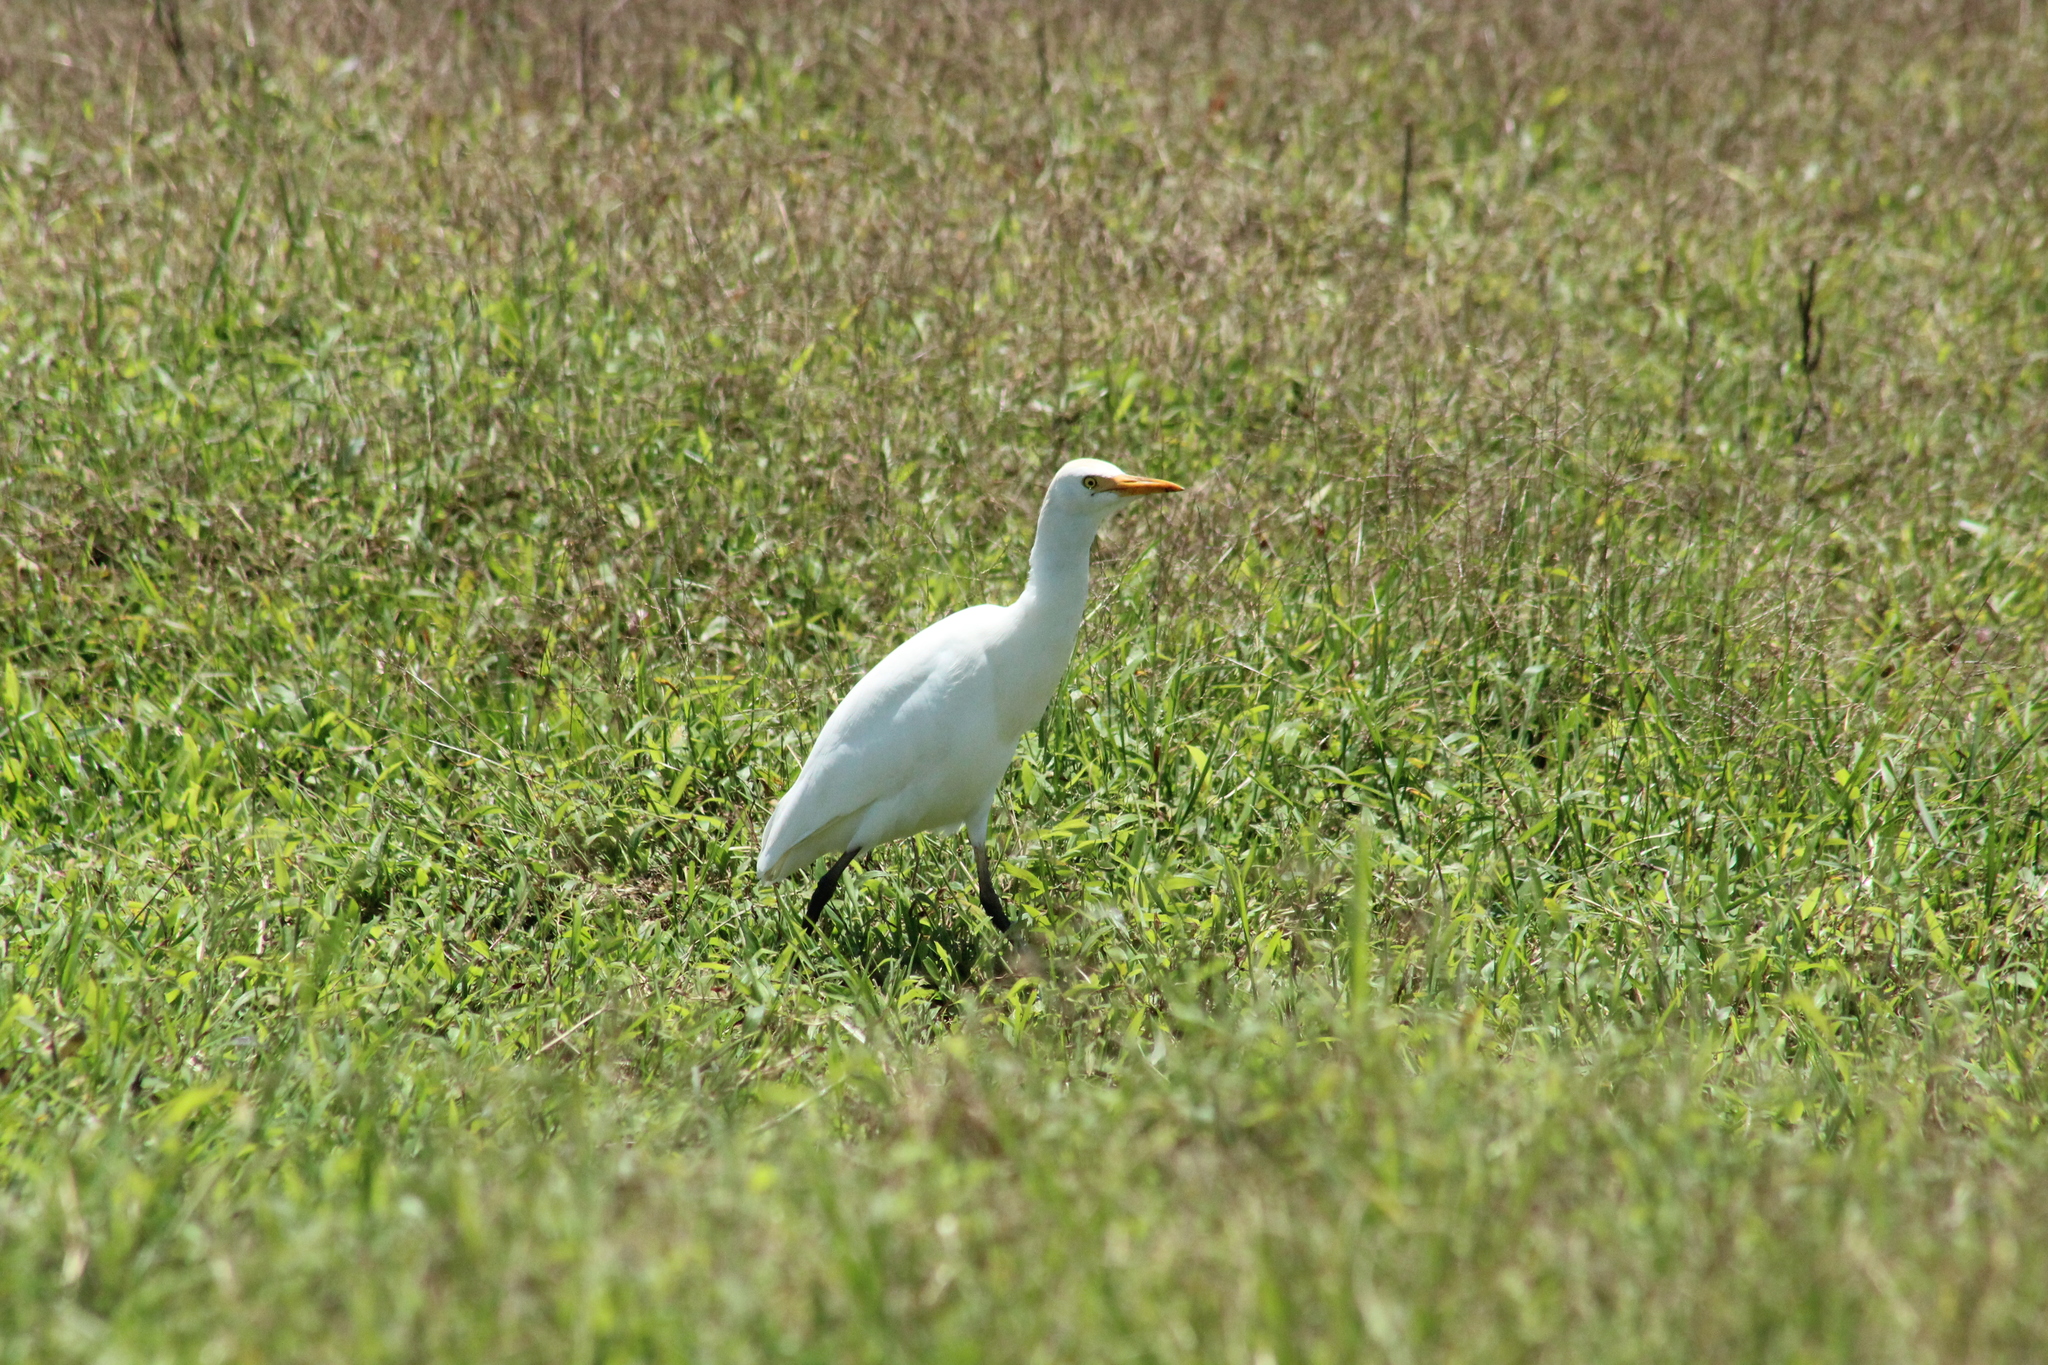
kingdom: Animalia
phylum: Chordata
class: Aves
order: Pelecaniformes
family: Ardeidae
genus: Bubulcus
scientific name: Bubulcus ibis
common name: Cattle egret
